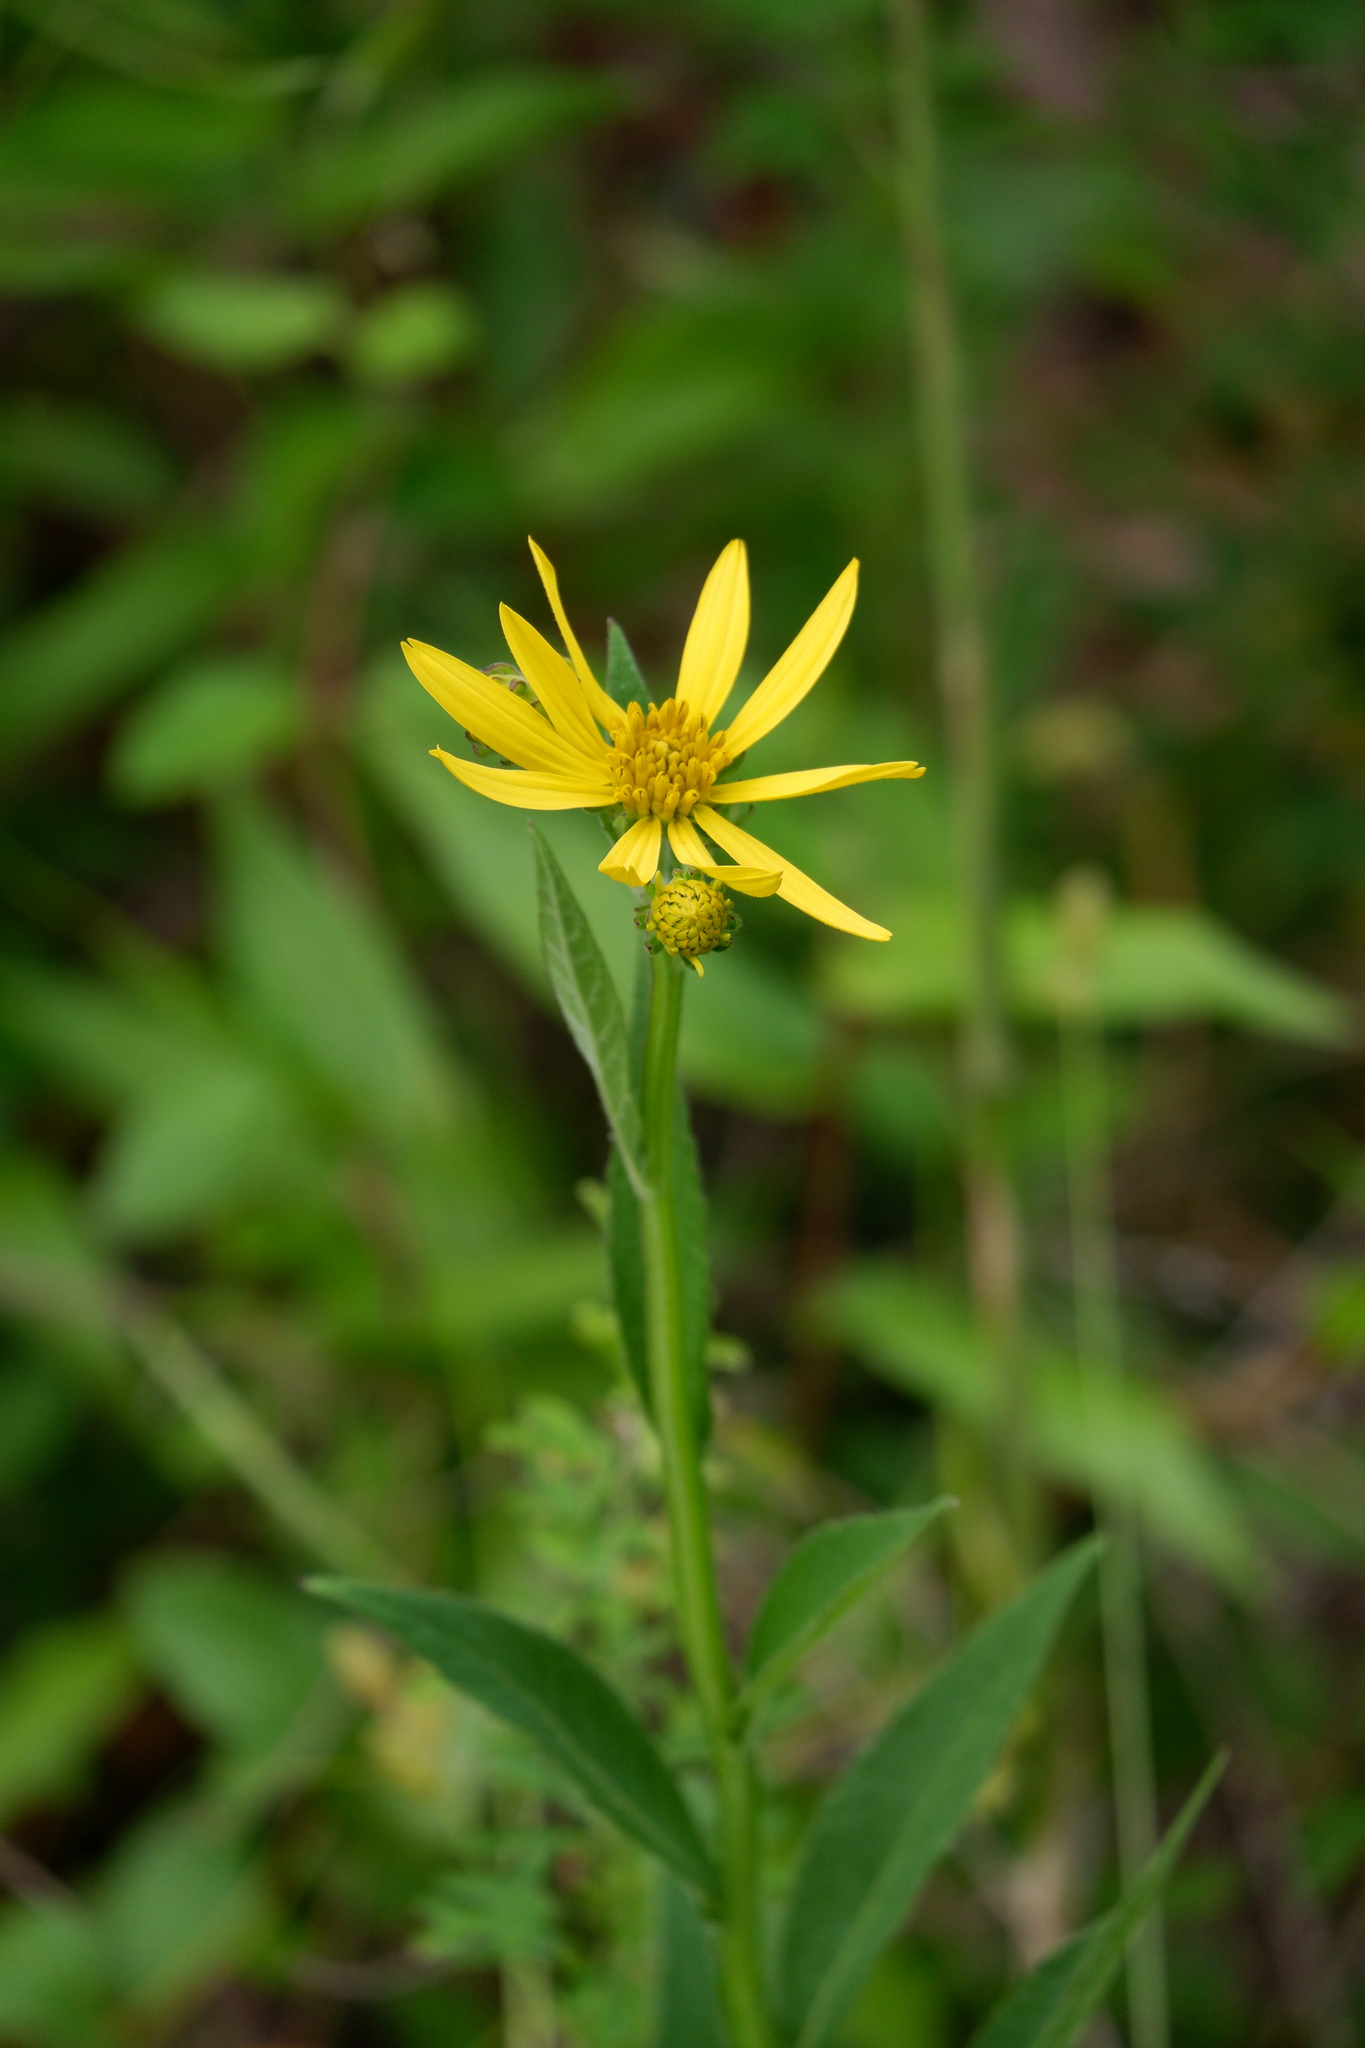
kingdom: Plantae
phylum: Tracheophyta
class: Magnoliopsida
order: Asterales
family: Asteraceae
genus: Verbesina
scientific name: Verbesina helianthoides
